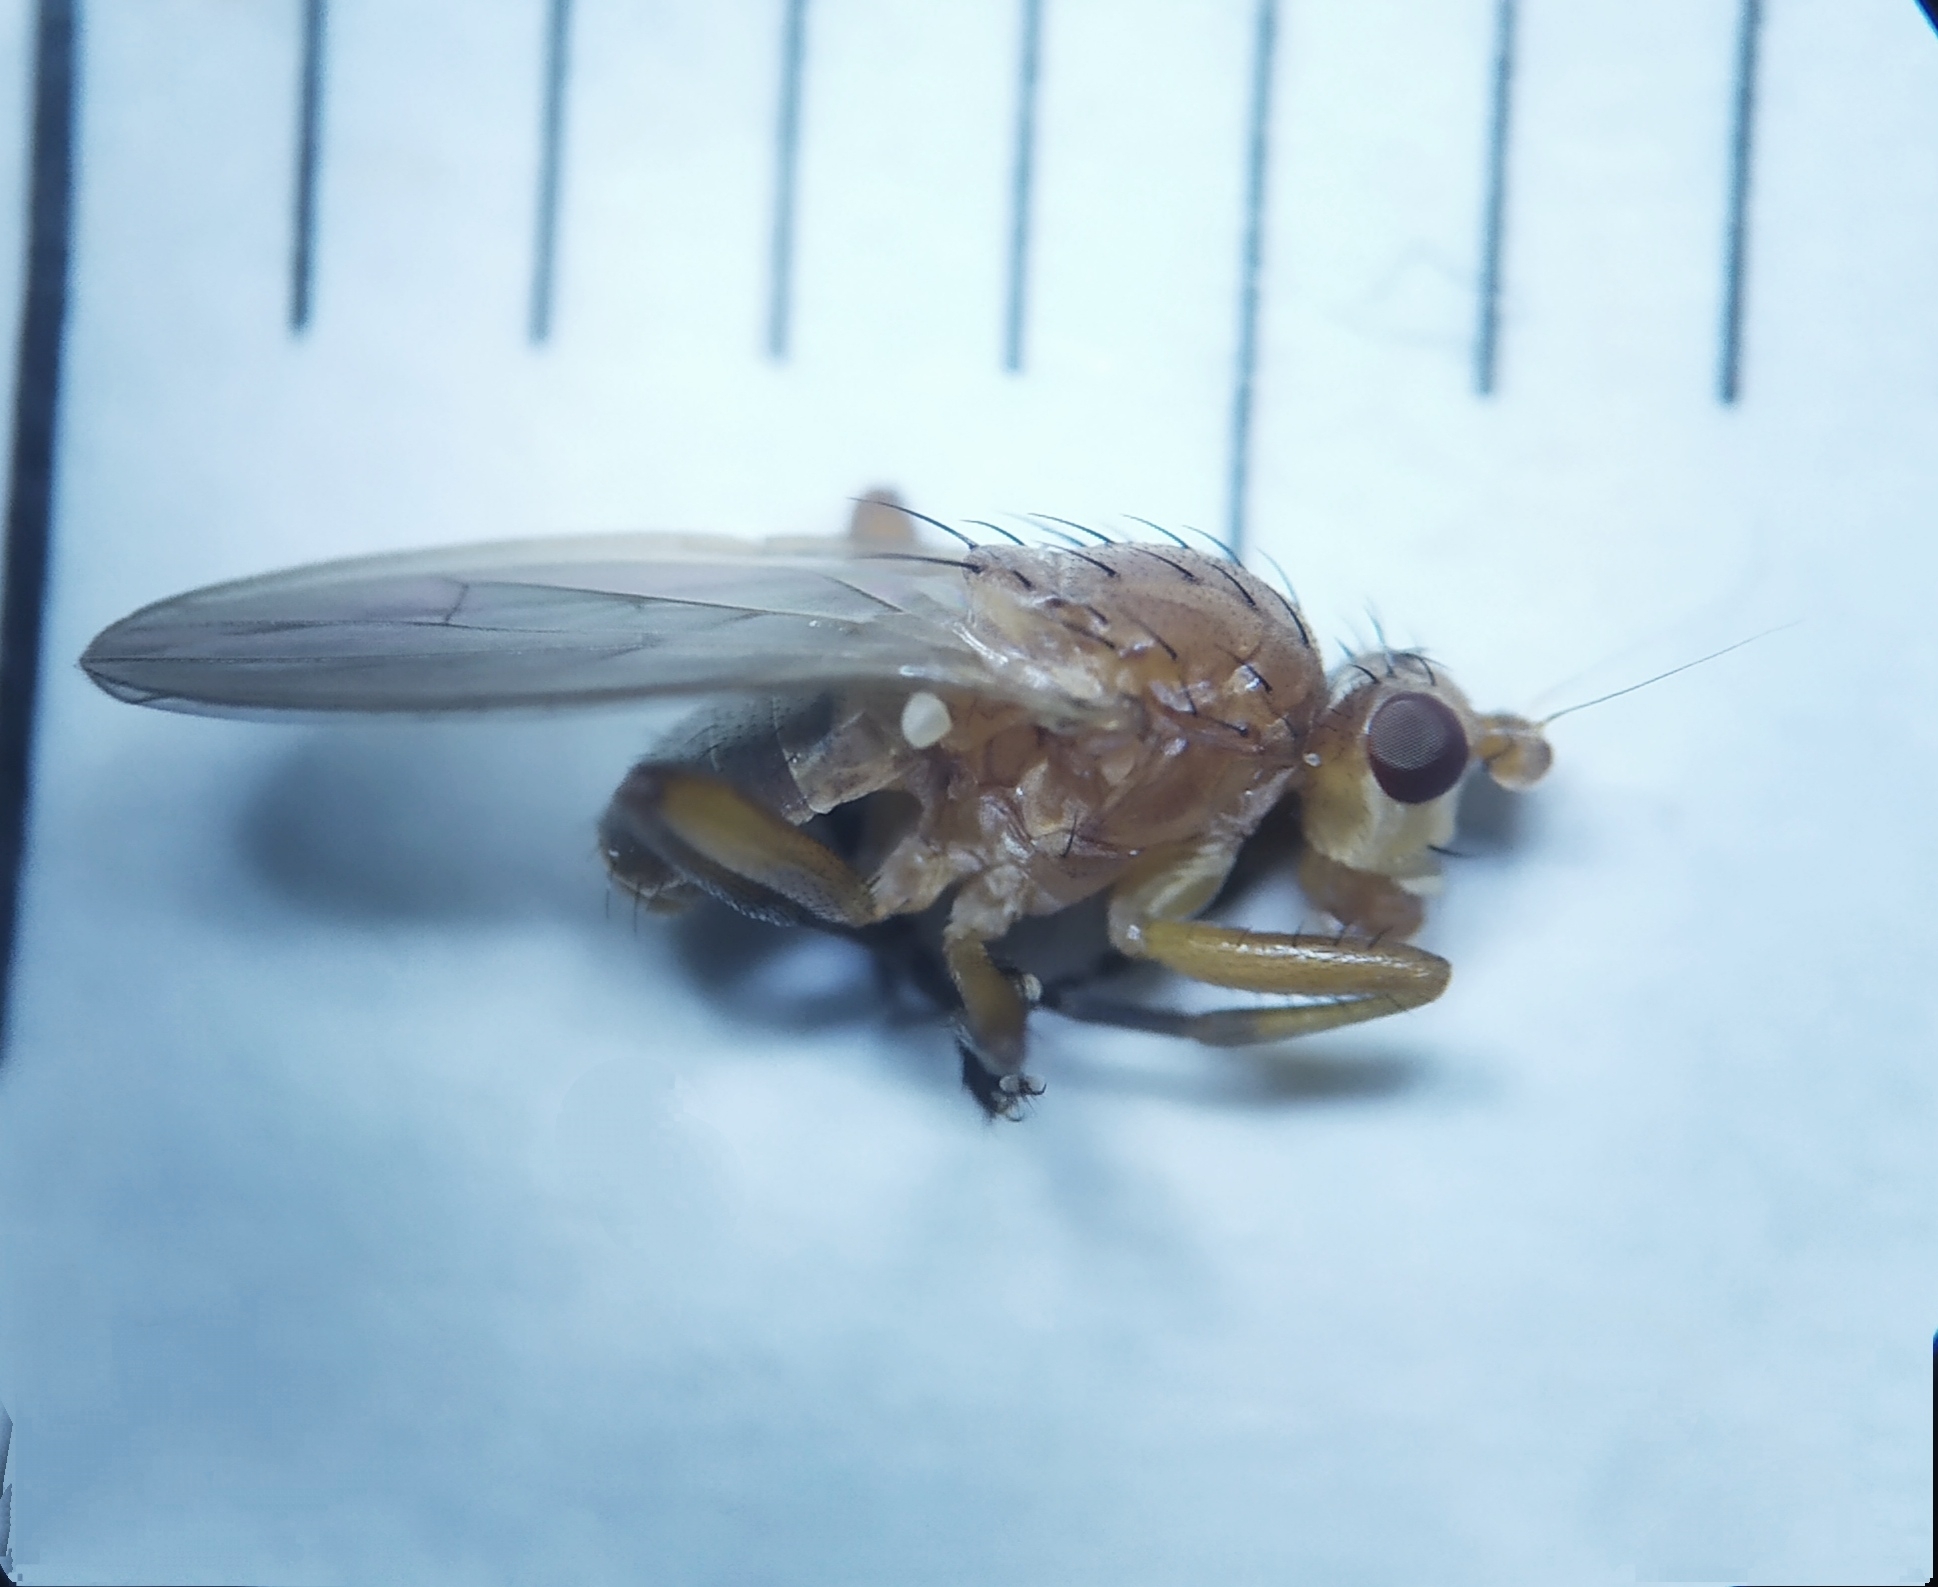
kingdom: Animalia
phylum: Arthropoda
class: Insecta
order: Diptera
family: Heleomyzidae
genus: Eccoptomera
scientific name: Eccoptomera longiseta
